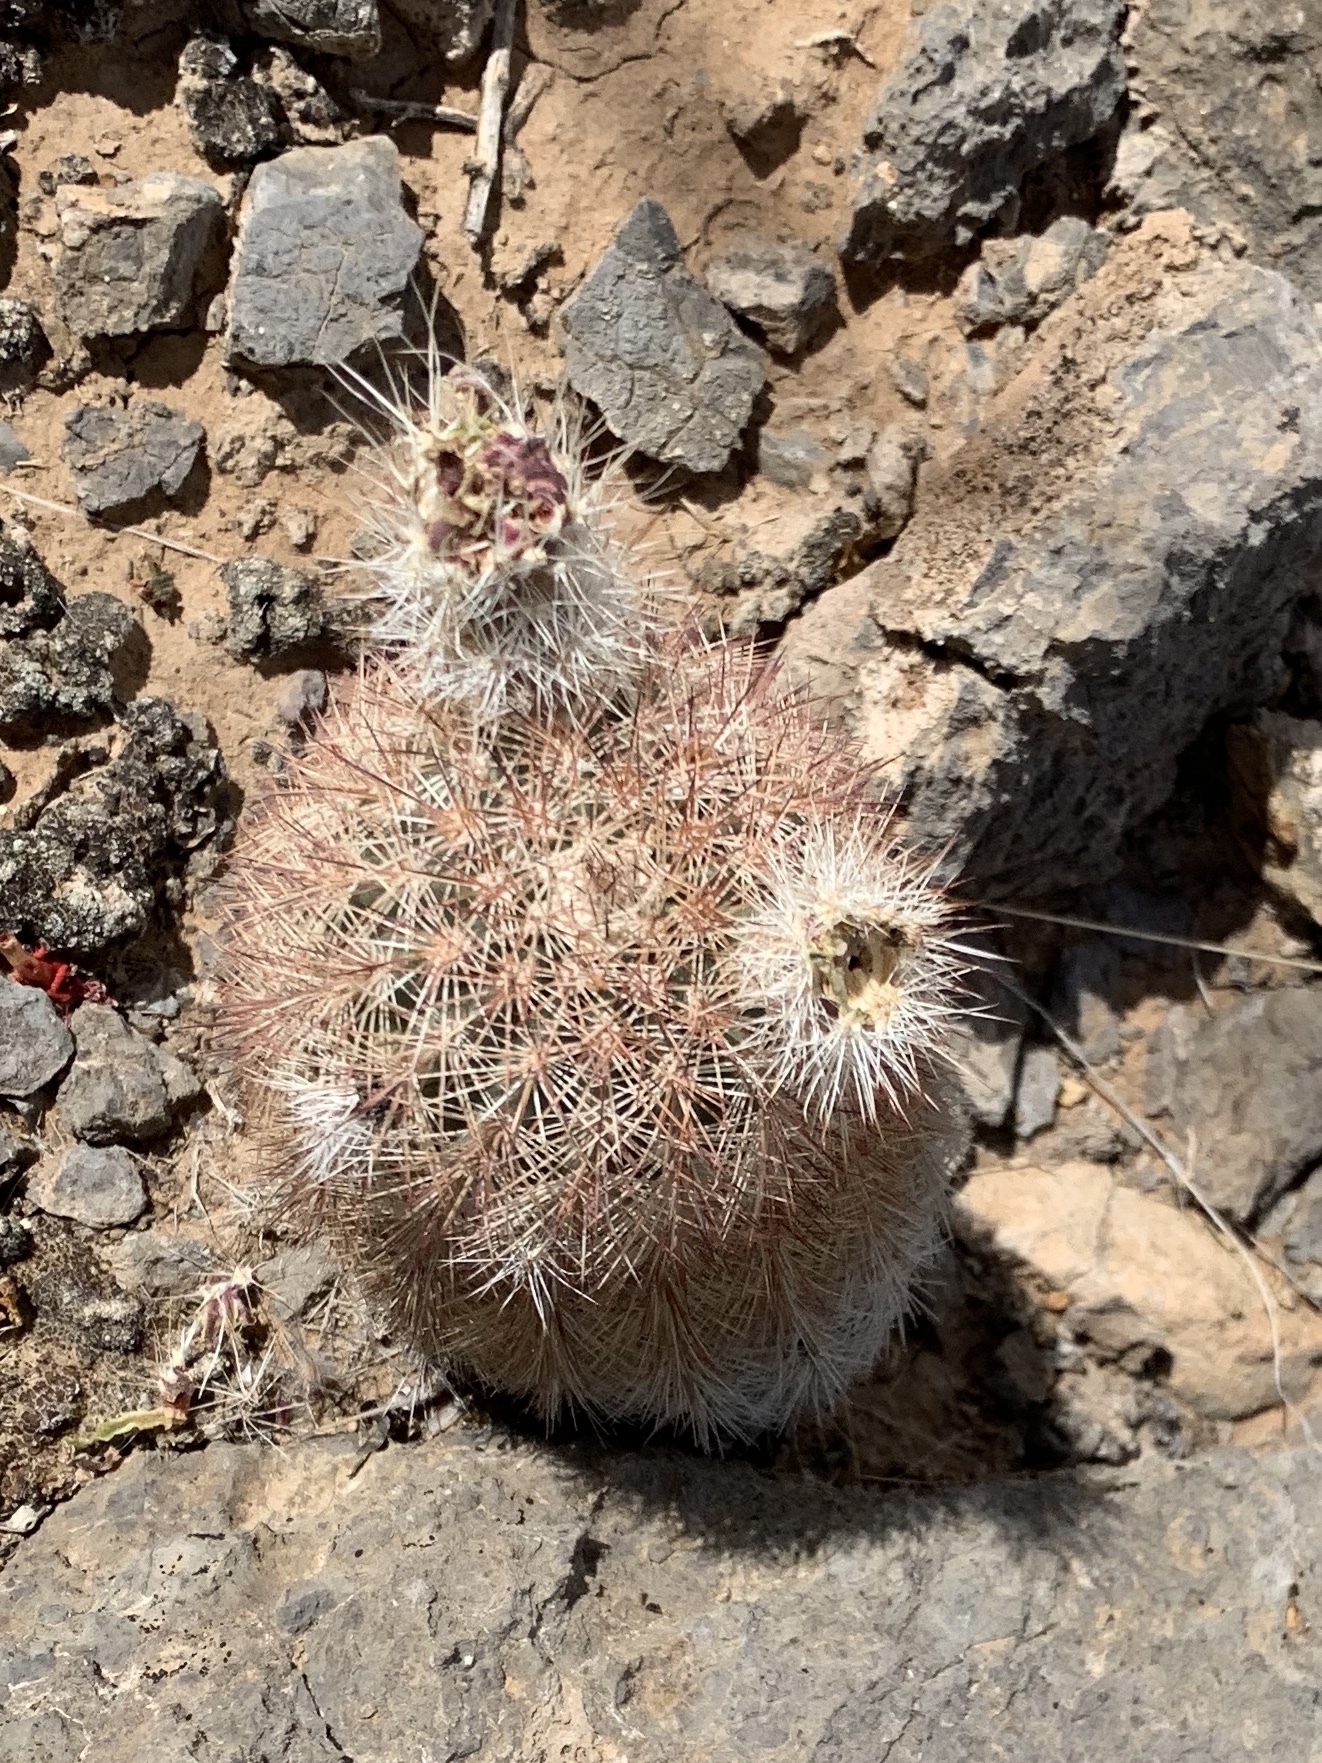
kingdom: Plantae
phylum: Tracheophyta
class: Magnoliopsida
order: Caryophyllales
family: Cactaceae
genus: Echinocereus
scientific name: Echinocereus dasyacanthus
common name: Spiny hedgehog cactus
